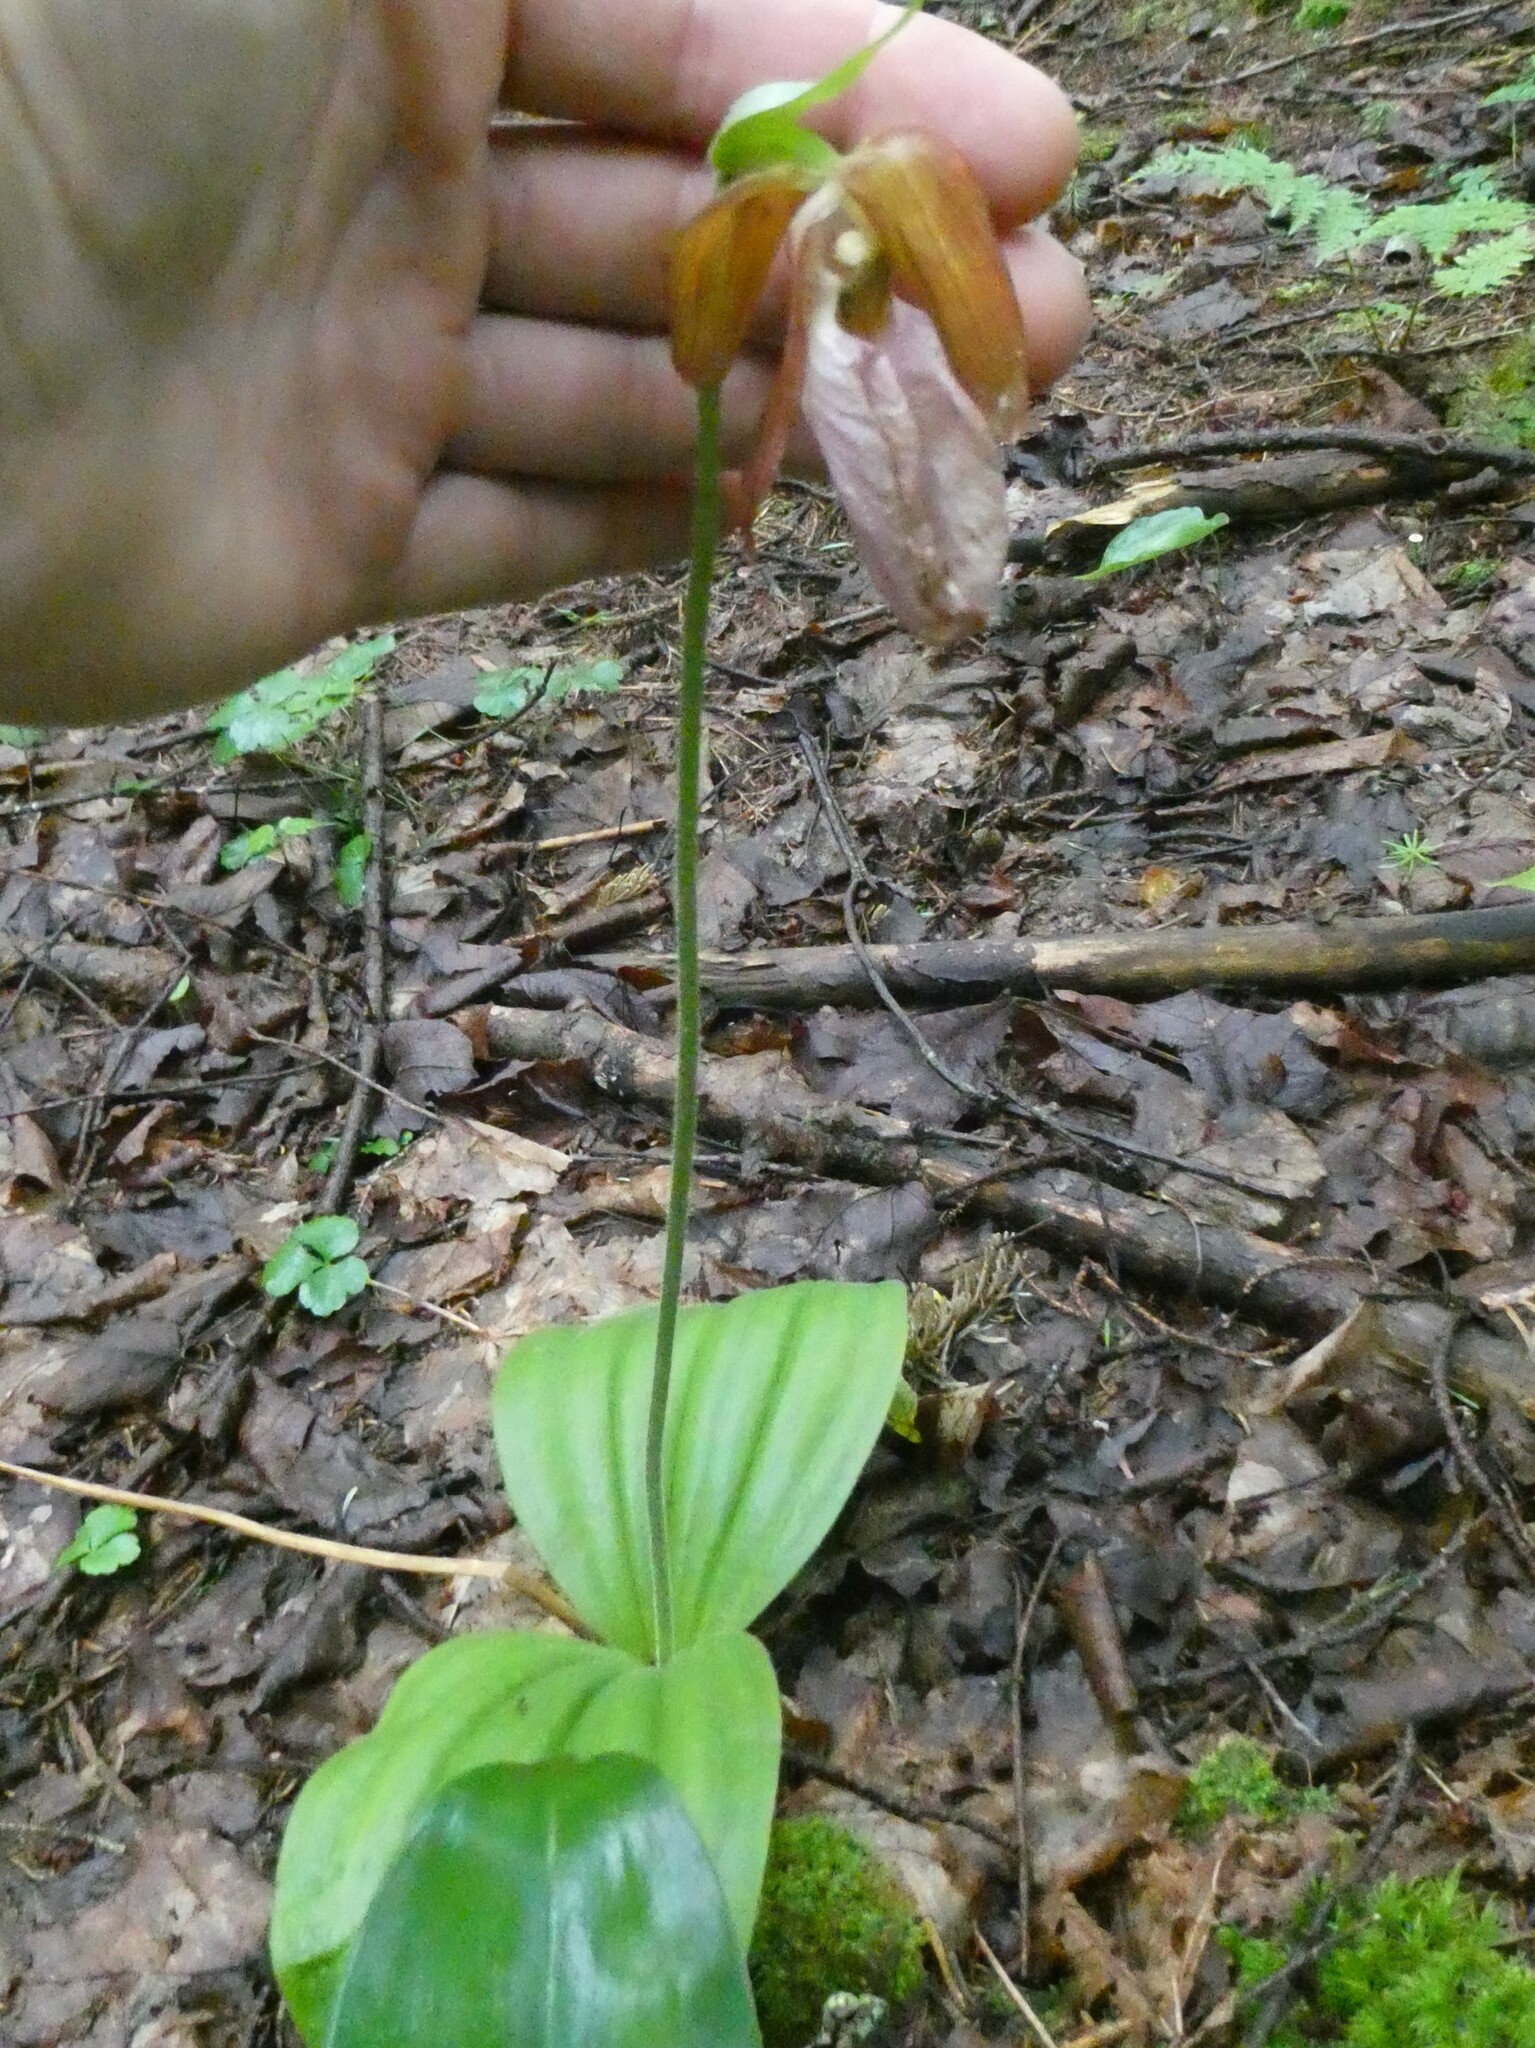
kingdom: Plantae
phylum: Tracheophyta
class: Liliopsida
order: Asparagales
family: Orchidaceae
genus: Cypripedium
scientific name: Cypripedium acaule
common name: Pink lady's-slipper
